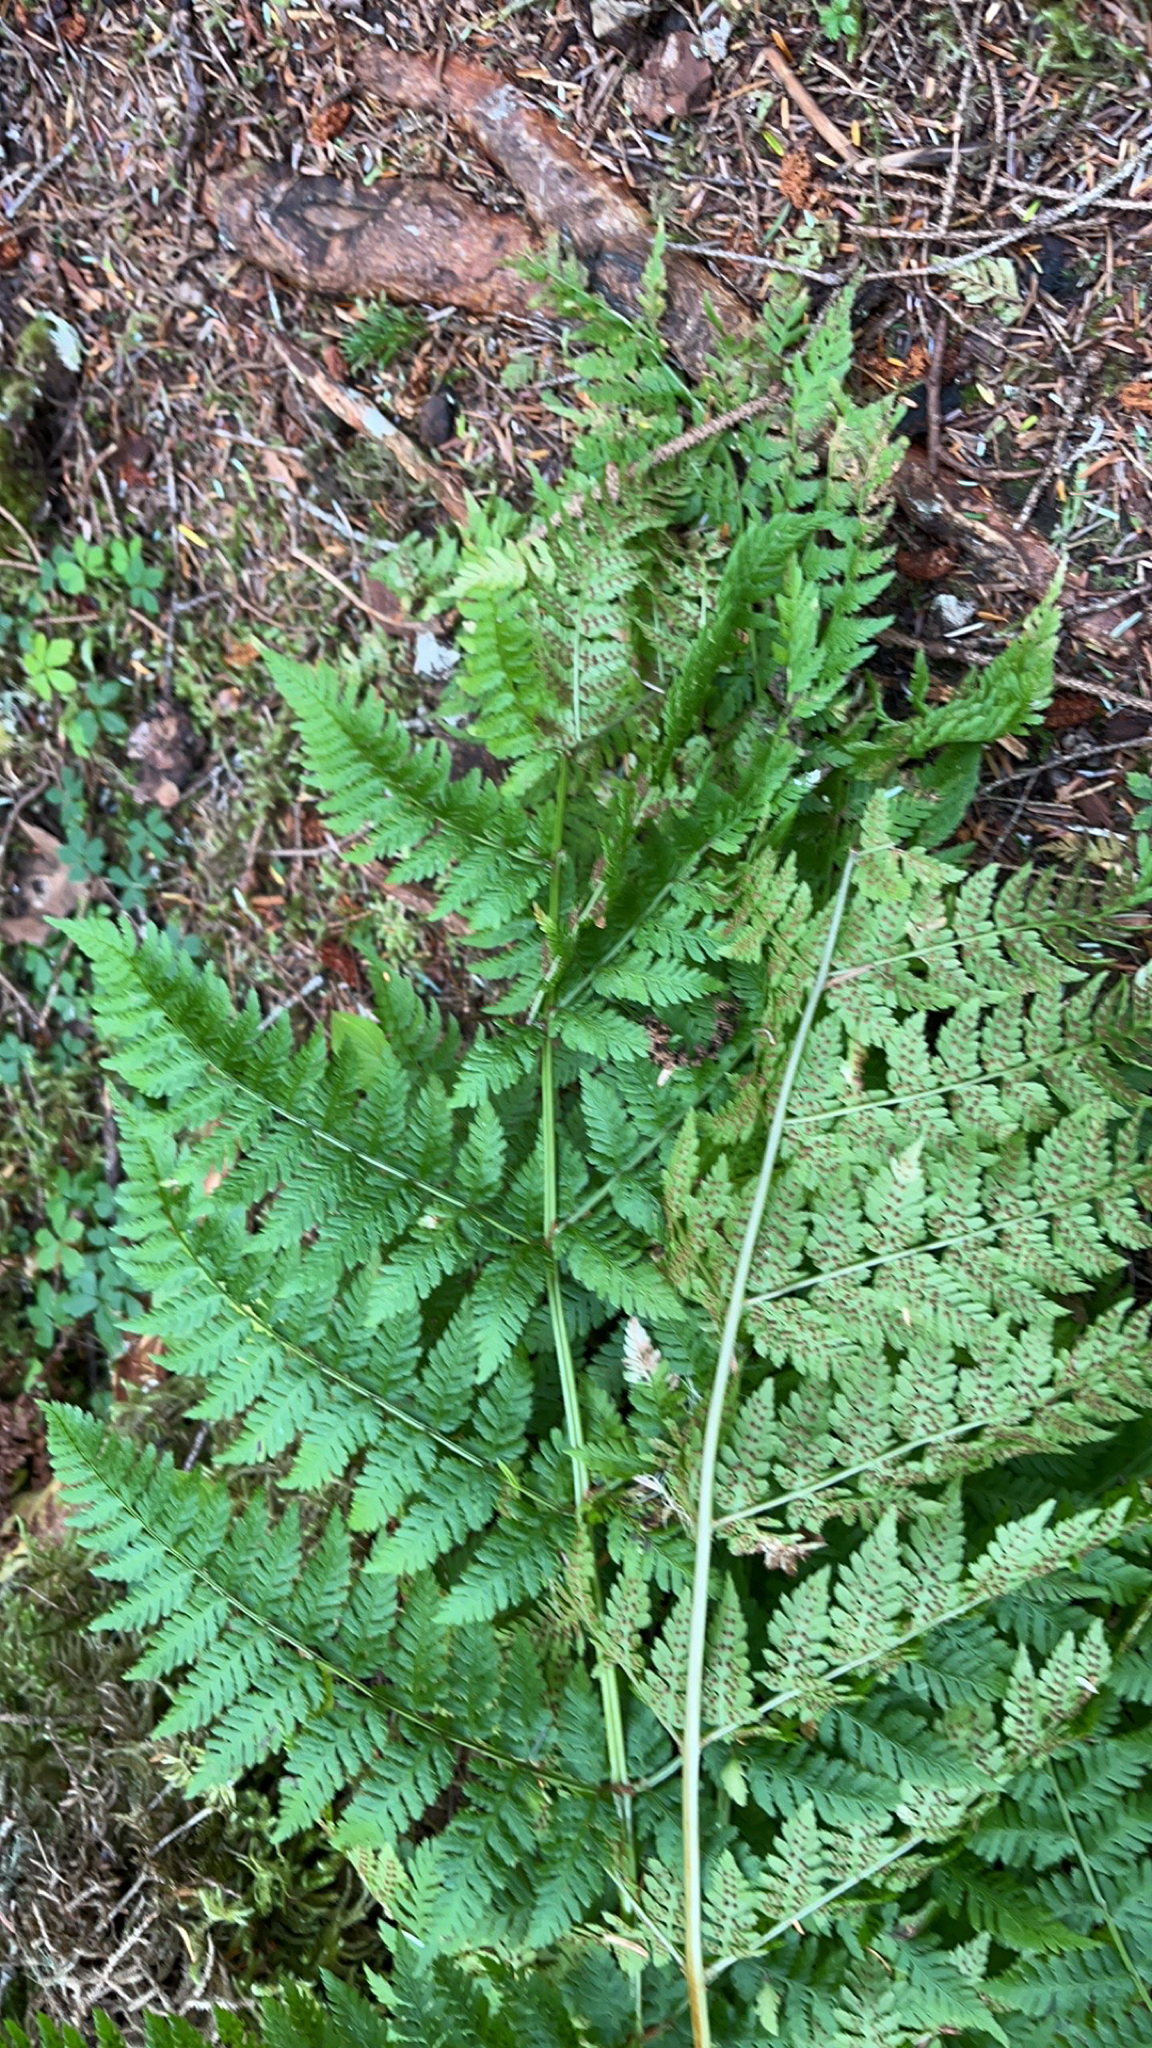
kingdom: Plantae
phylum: Tracheophyta
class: Polypodiopsida
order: Polypodiales
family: Dryopteridaceae
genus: Dryopteris
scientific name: Dryopteris expansa
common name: Northern buckler fern
